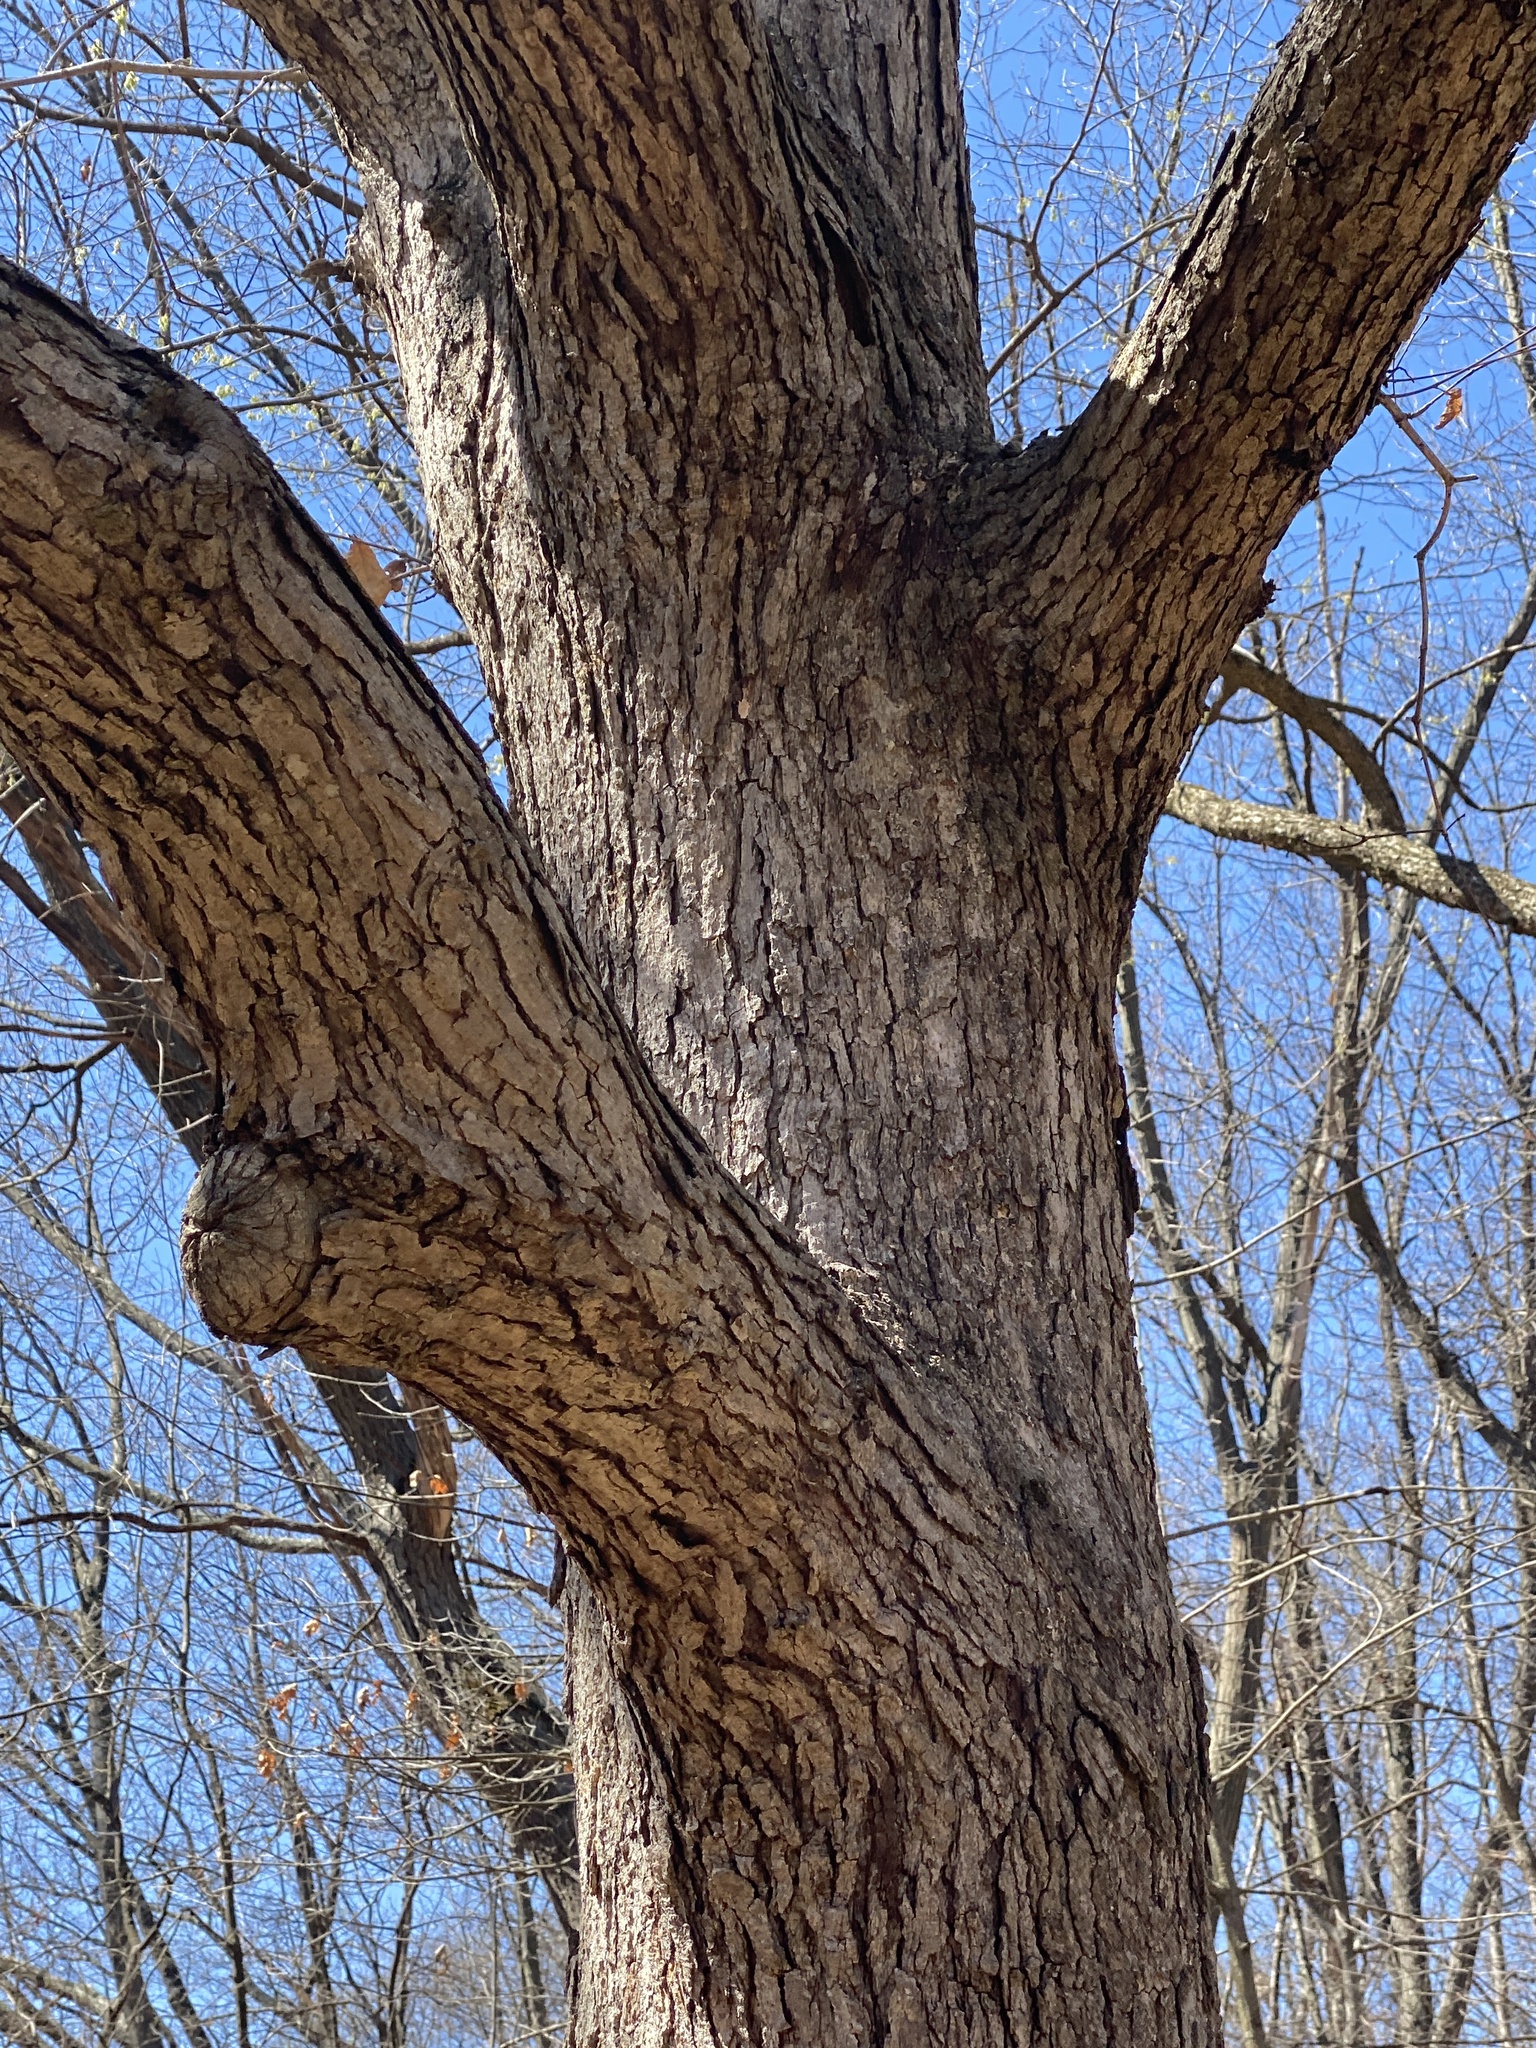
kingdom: Plantae
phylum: Tracheophyta
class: Magnoliopsida
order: Fagales
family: Fagaceae
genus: Quercus
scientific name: Quercus alba
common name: White oak
